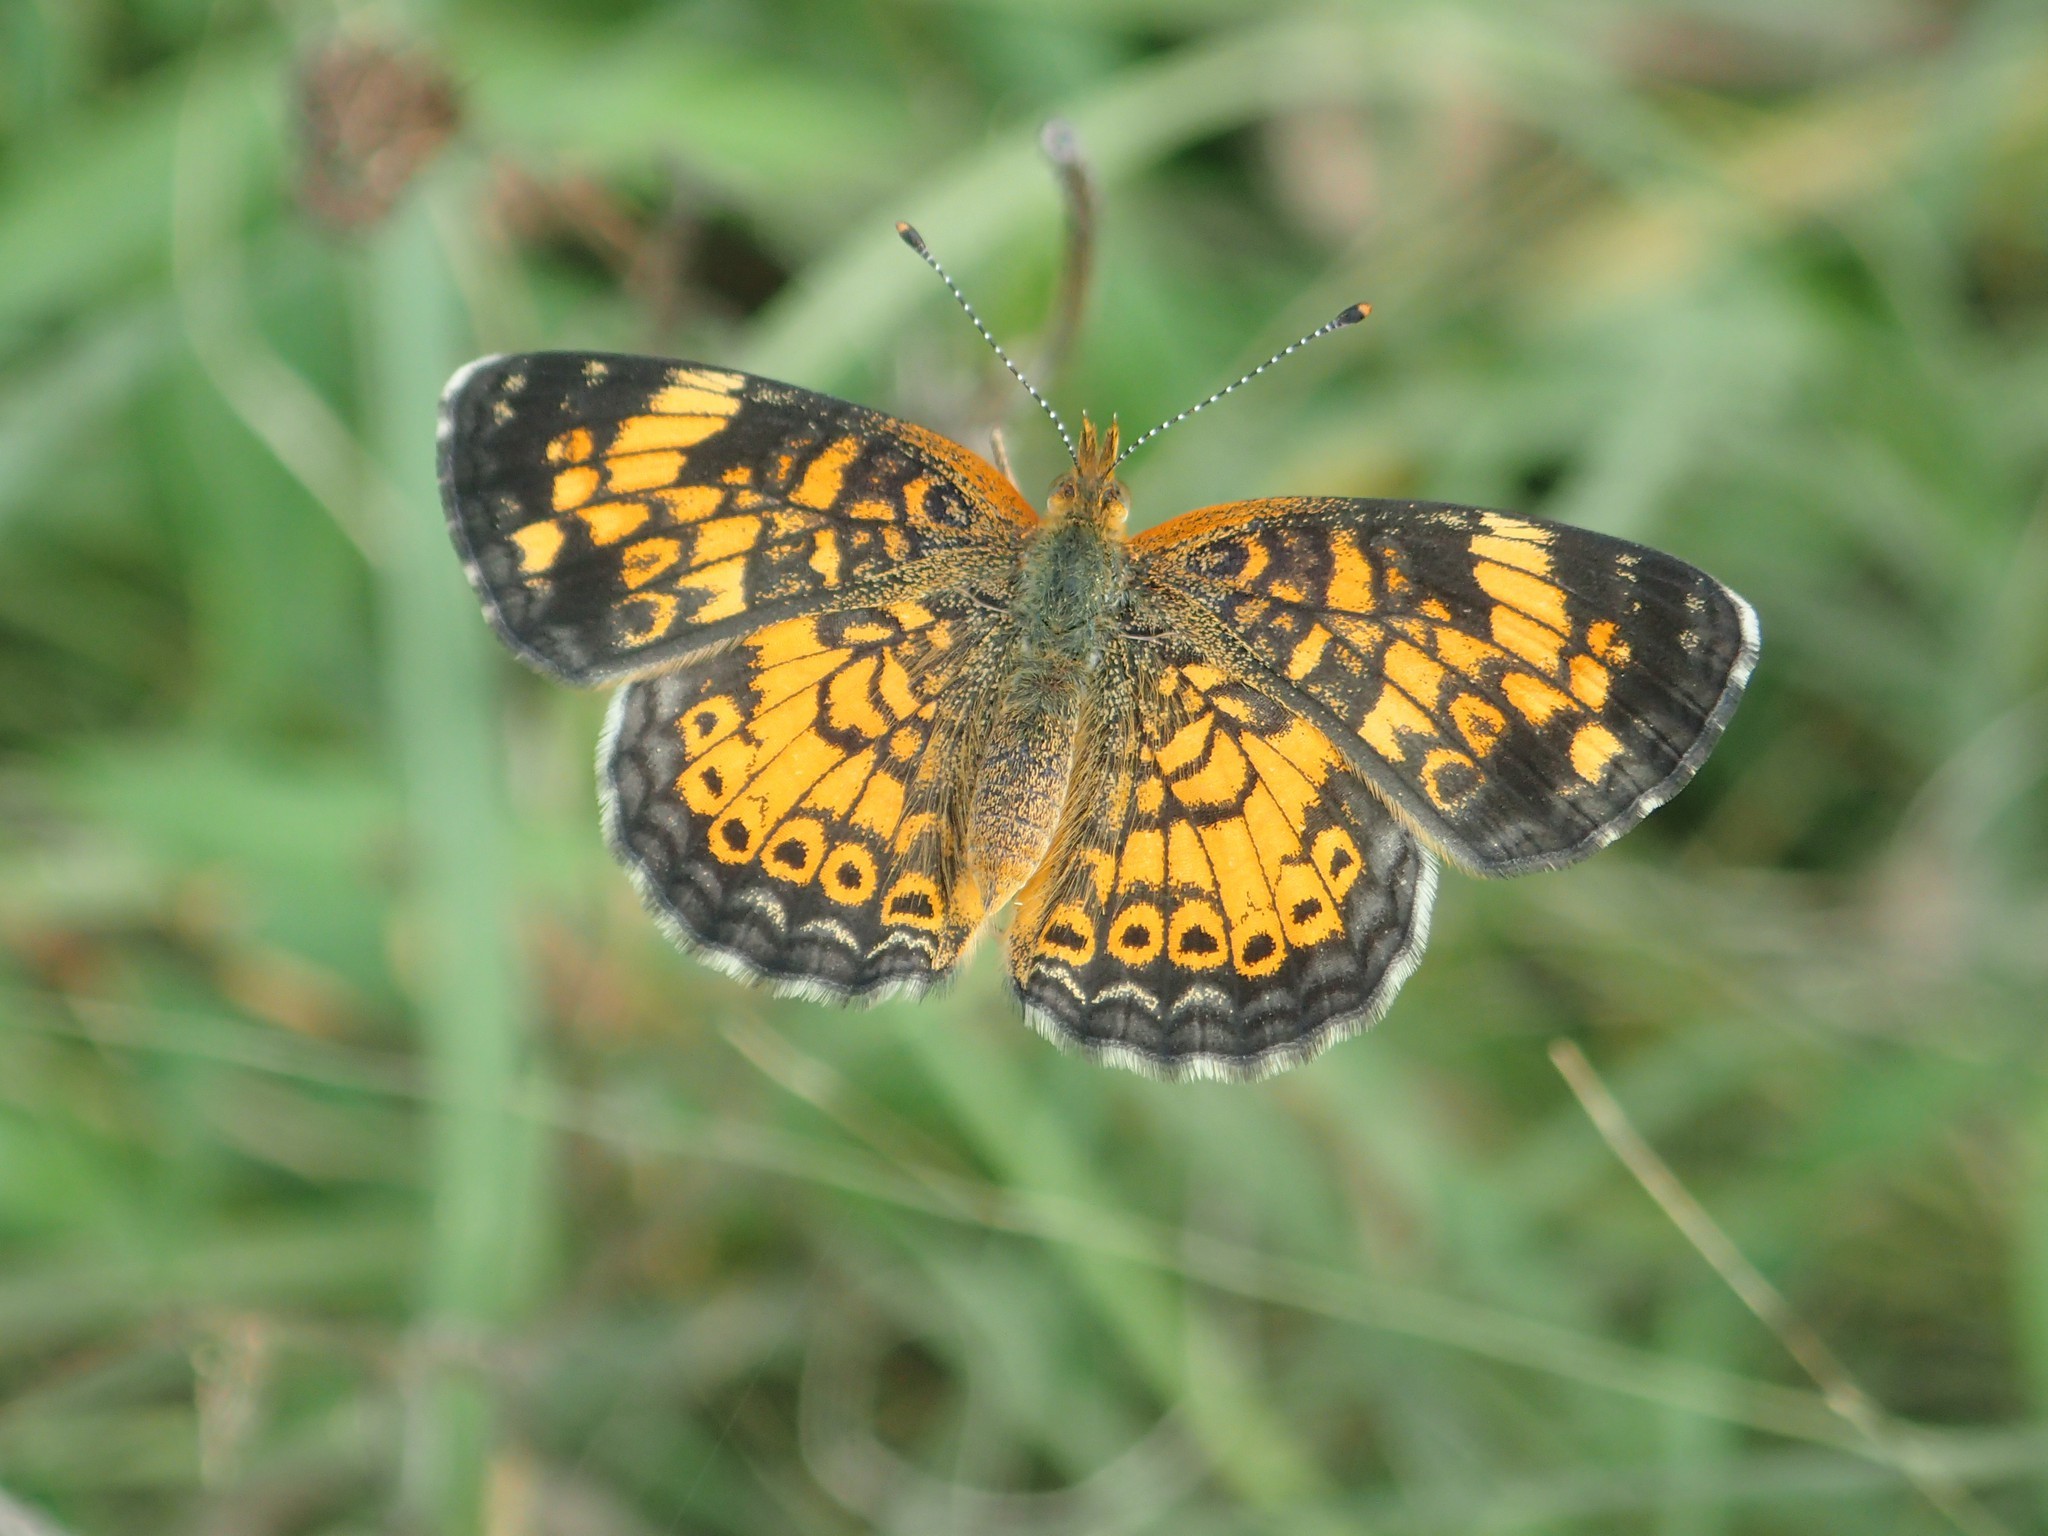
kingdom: Animalia
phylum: Arthropoda
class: Insecta
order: Lepidoptera
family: Nymphalidae
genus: Phyciodes
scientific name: Phyciodes tharos
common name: Pearl crescent
